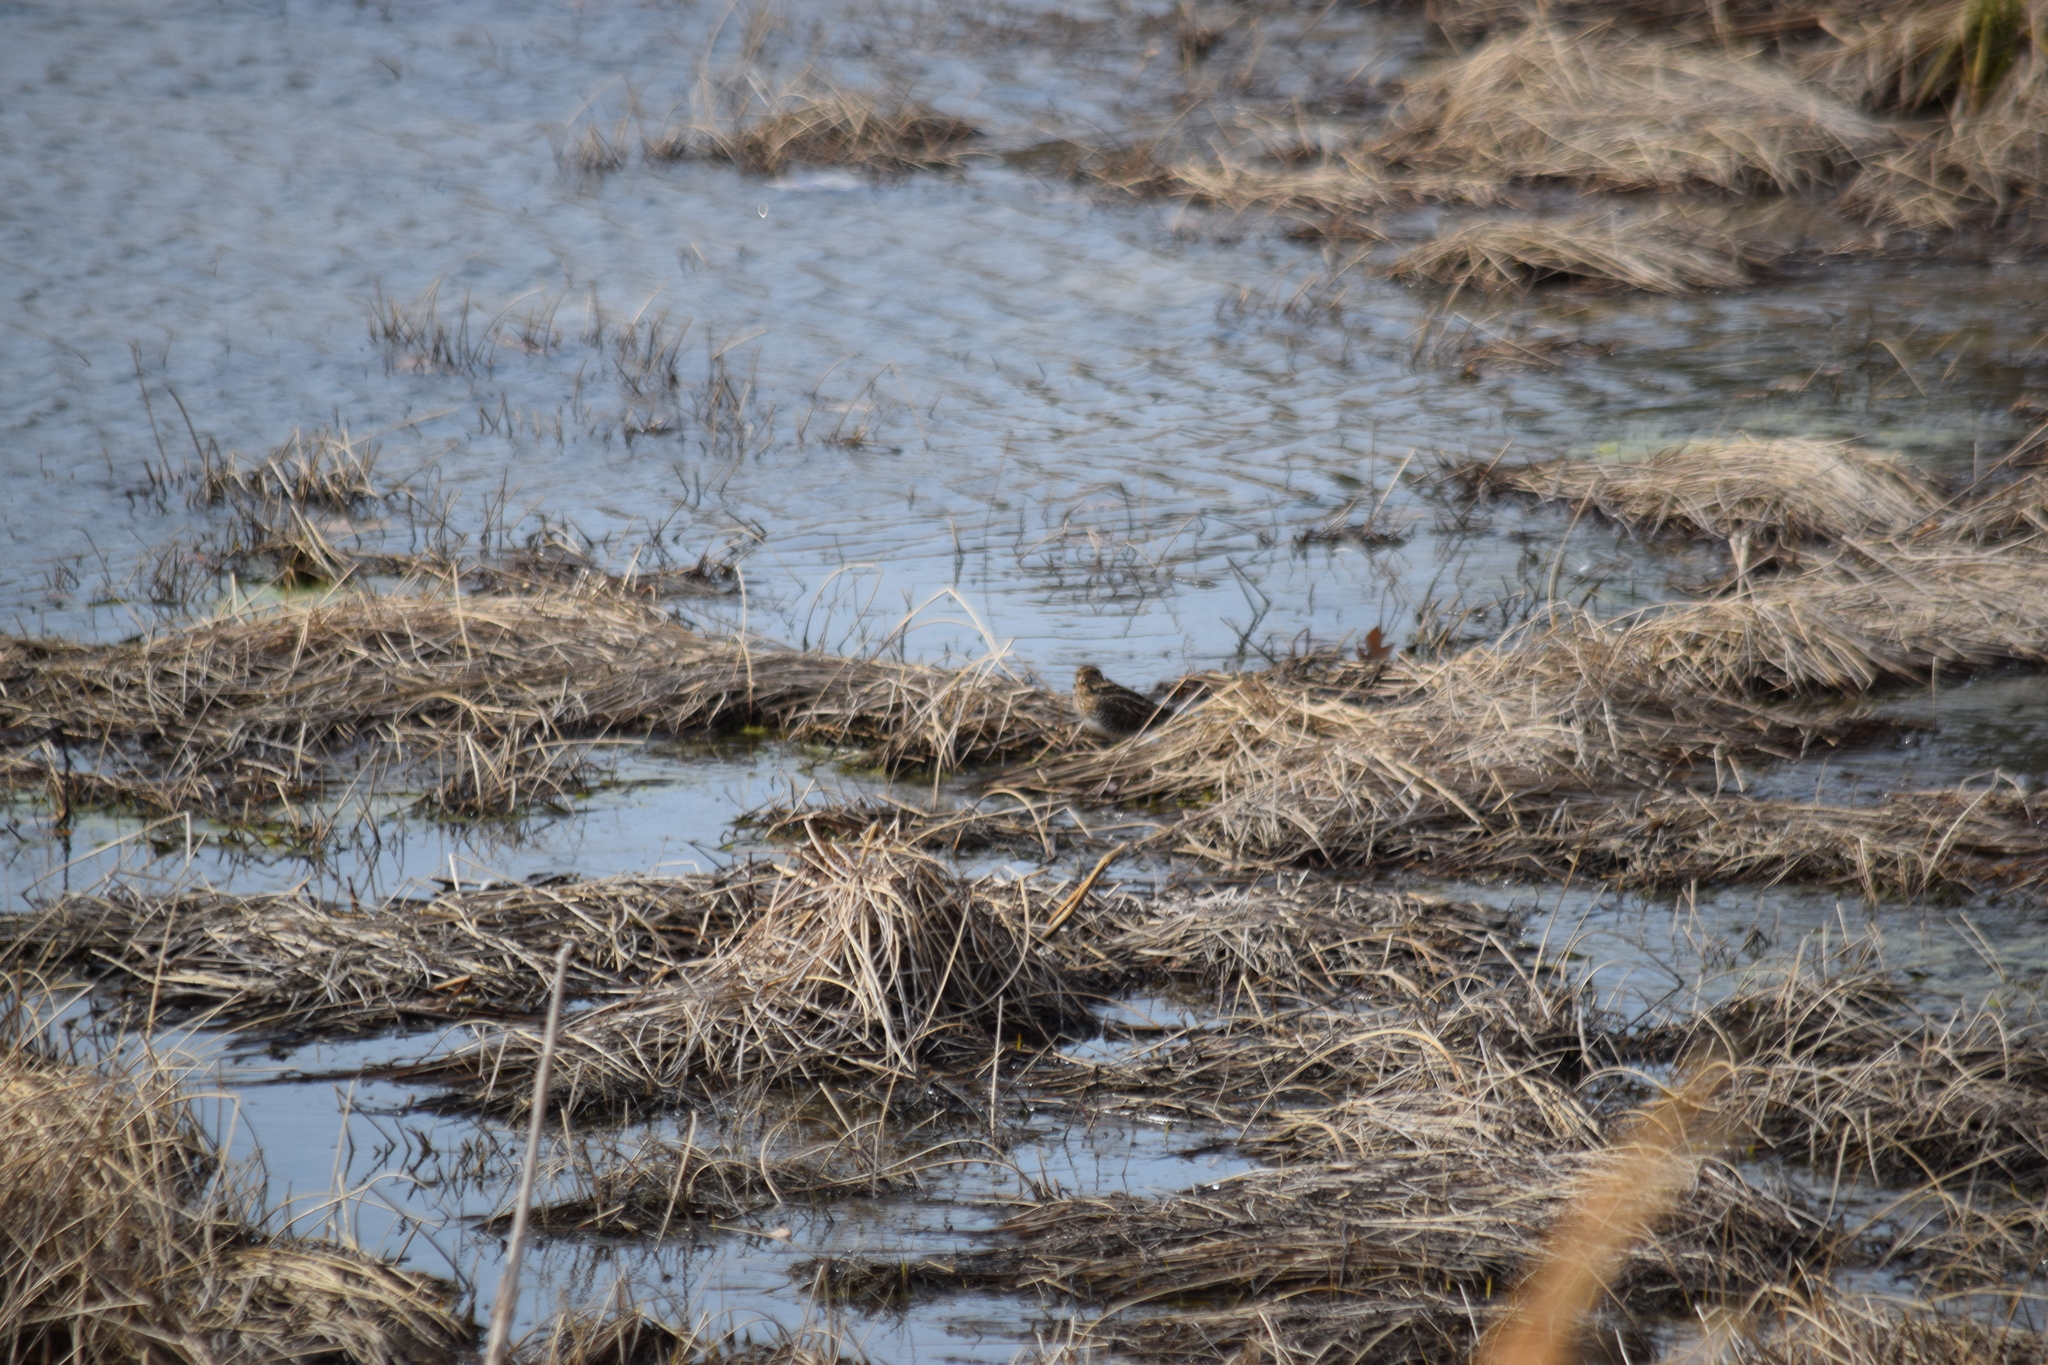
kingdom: Animalia
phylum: Chordata
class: Aves
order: Charadriiformes
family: Scolopacidae
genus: Gallinago
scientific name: Gallinago delicata
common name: Wilson's snipe
